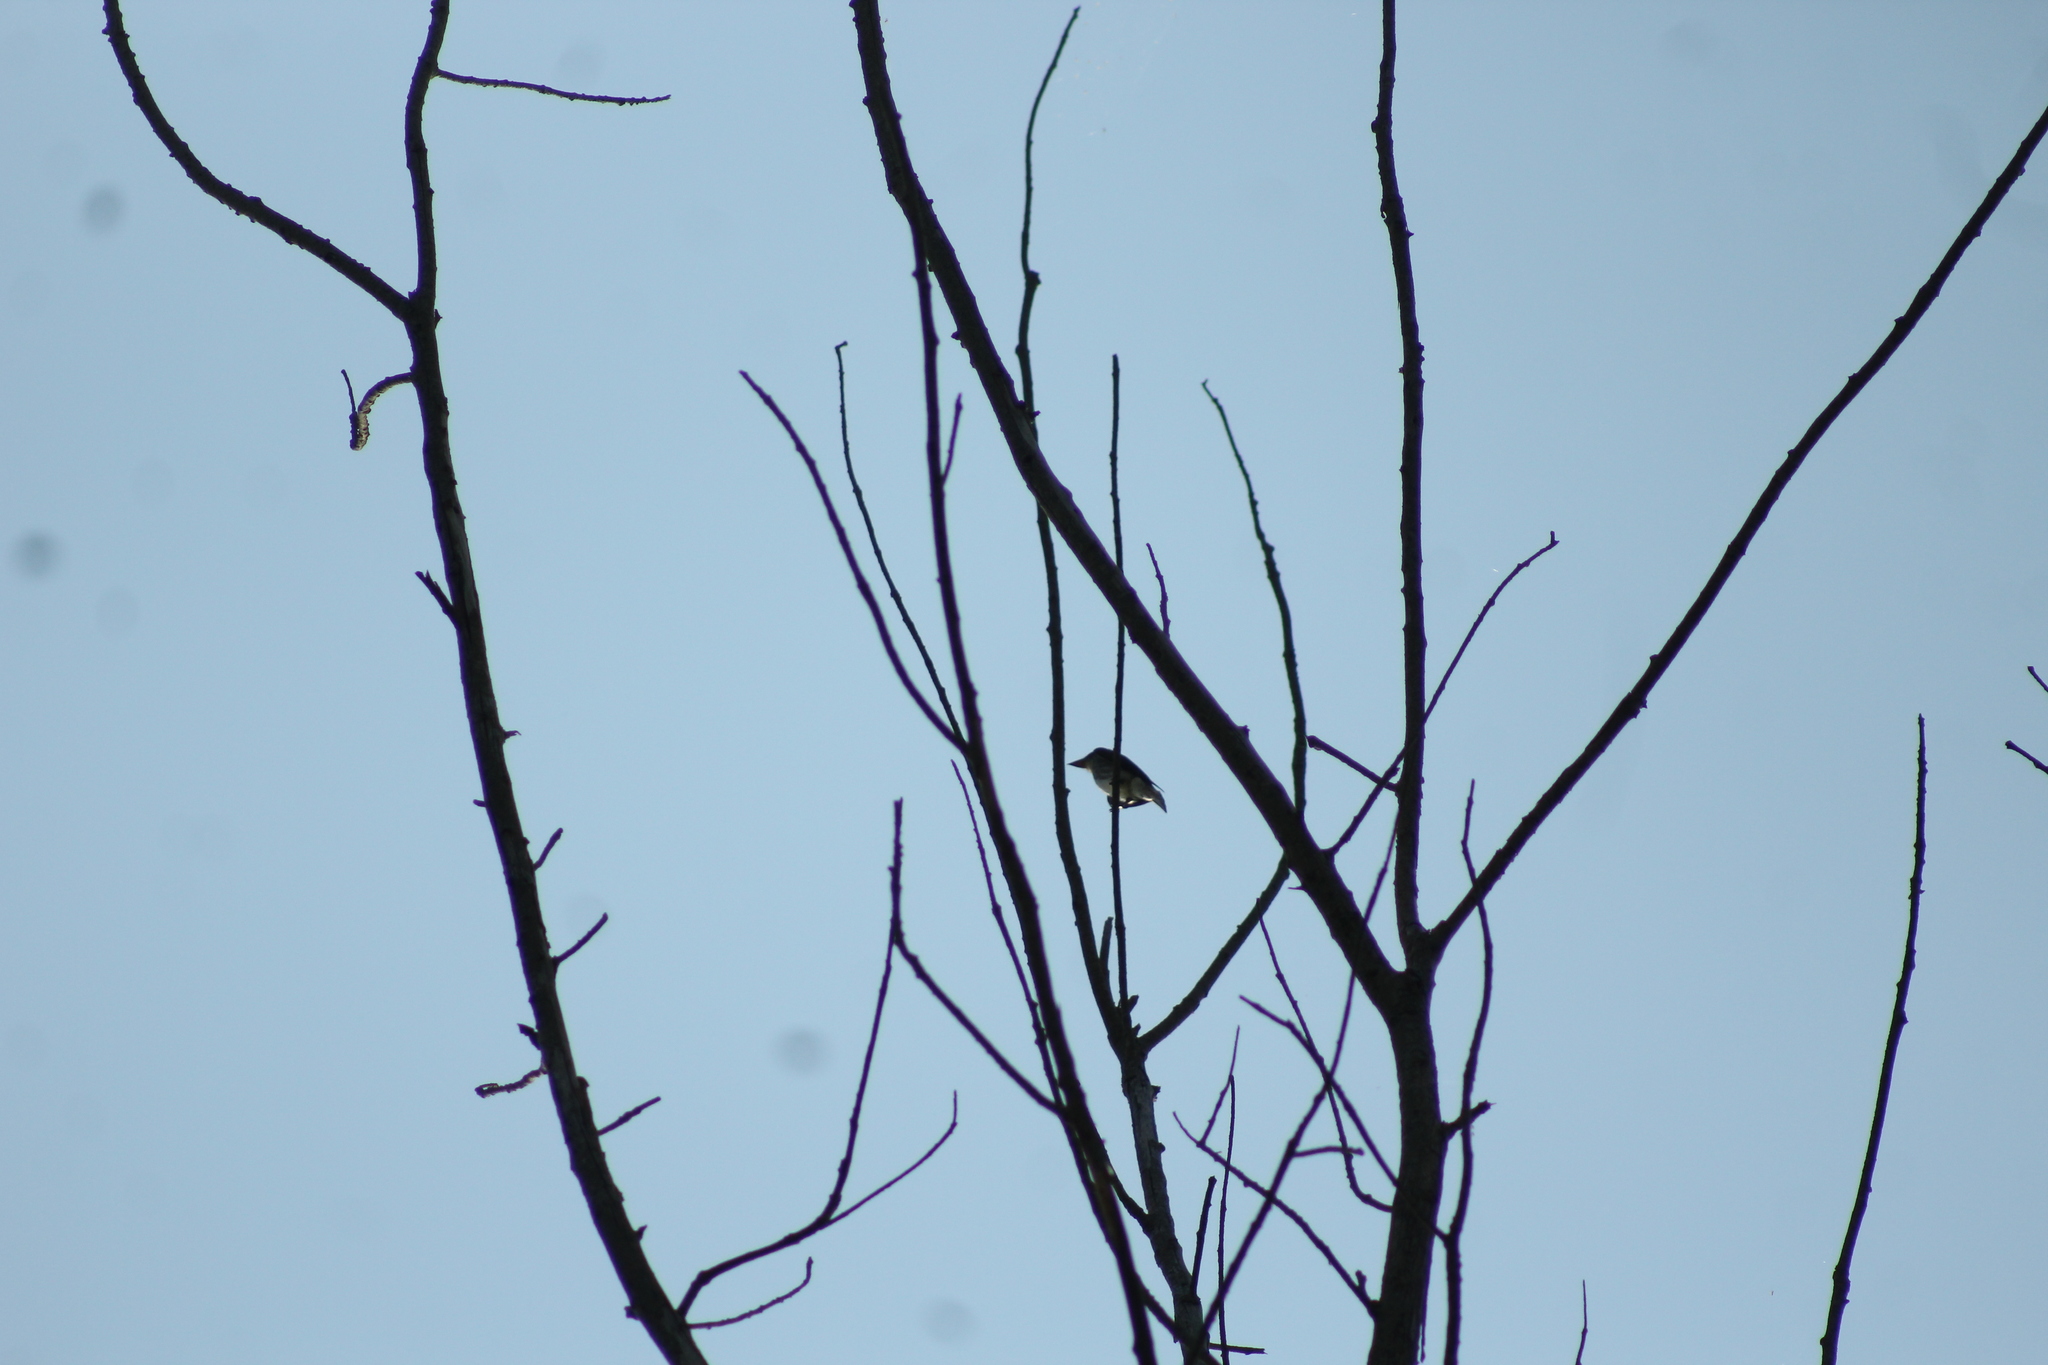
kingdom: Animalia
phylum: Chordata
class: Aves
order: Passeriformes
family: Tyrannidae
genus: Contopus
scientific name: Contopus cooperi
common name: Olive-sided flycatcher
